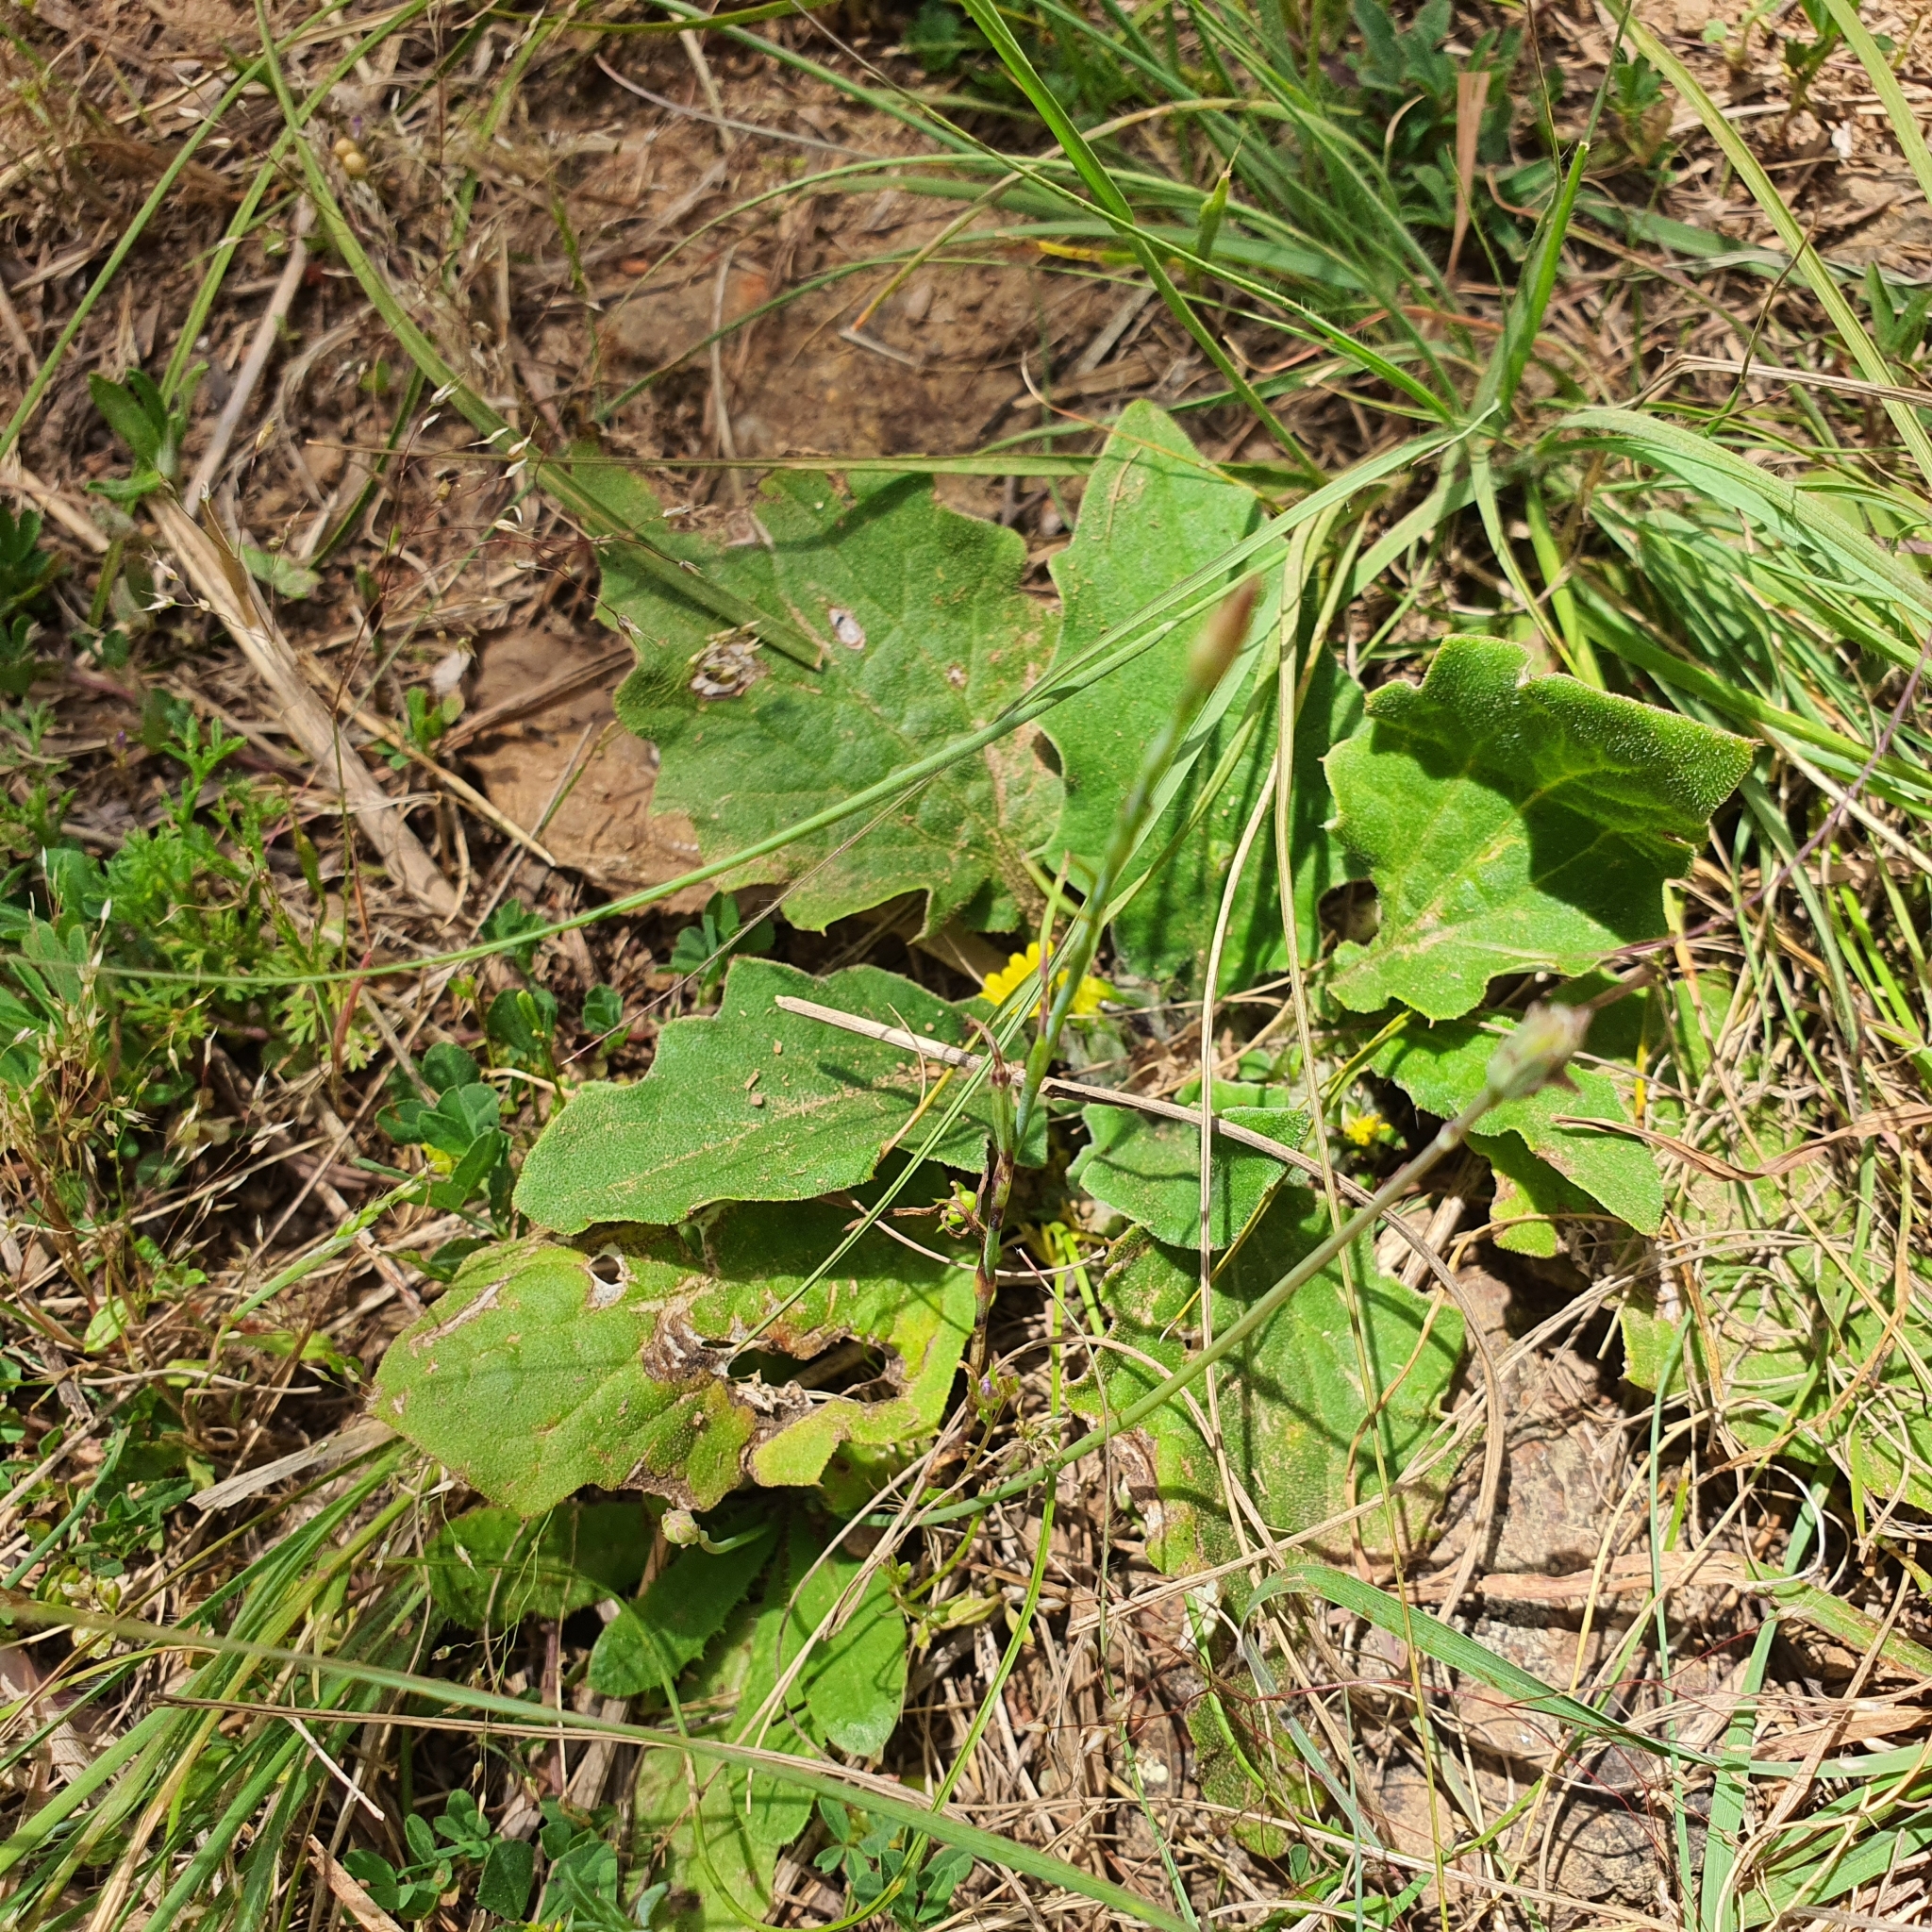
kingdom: Plantae
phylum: Tracheophyta
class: Magnoliopsida
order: Asterales
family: Asteraceae
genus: Cymbonotus
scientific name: Cymbonotus
